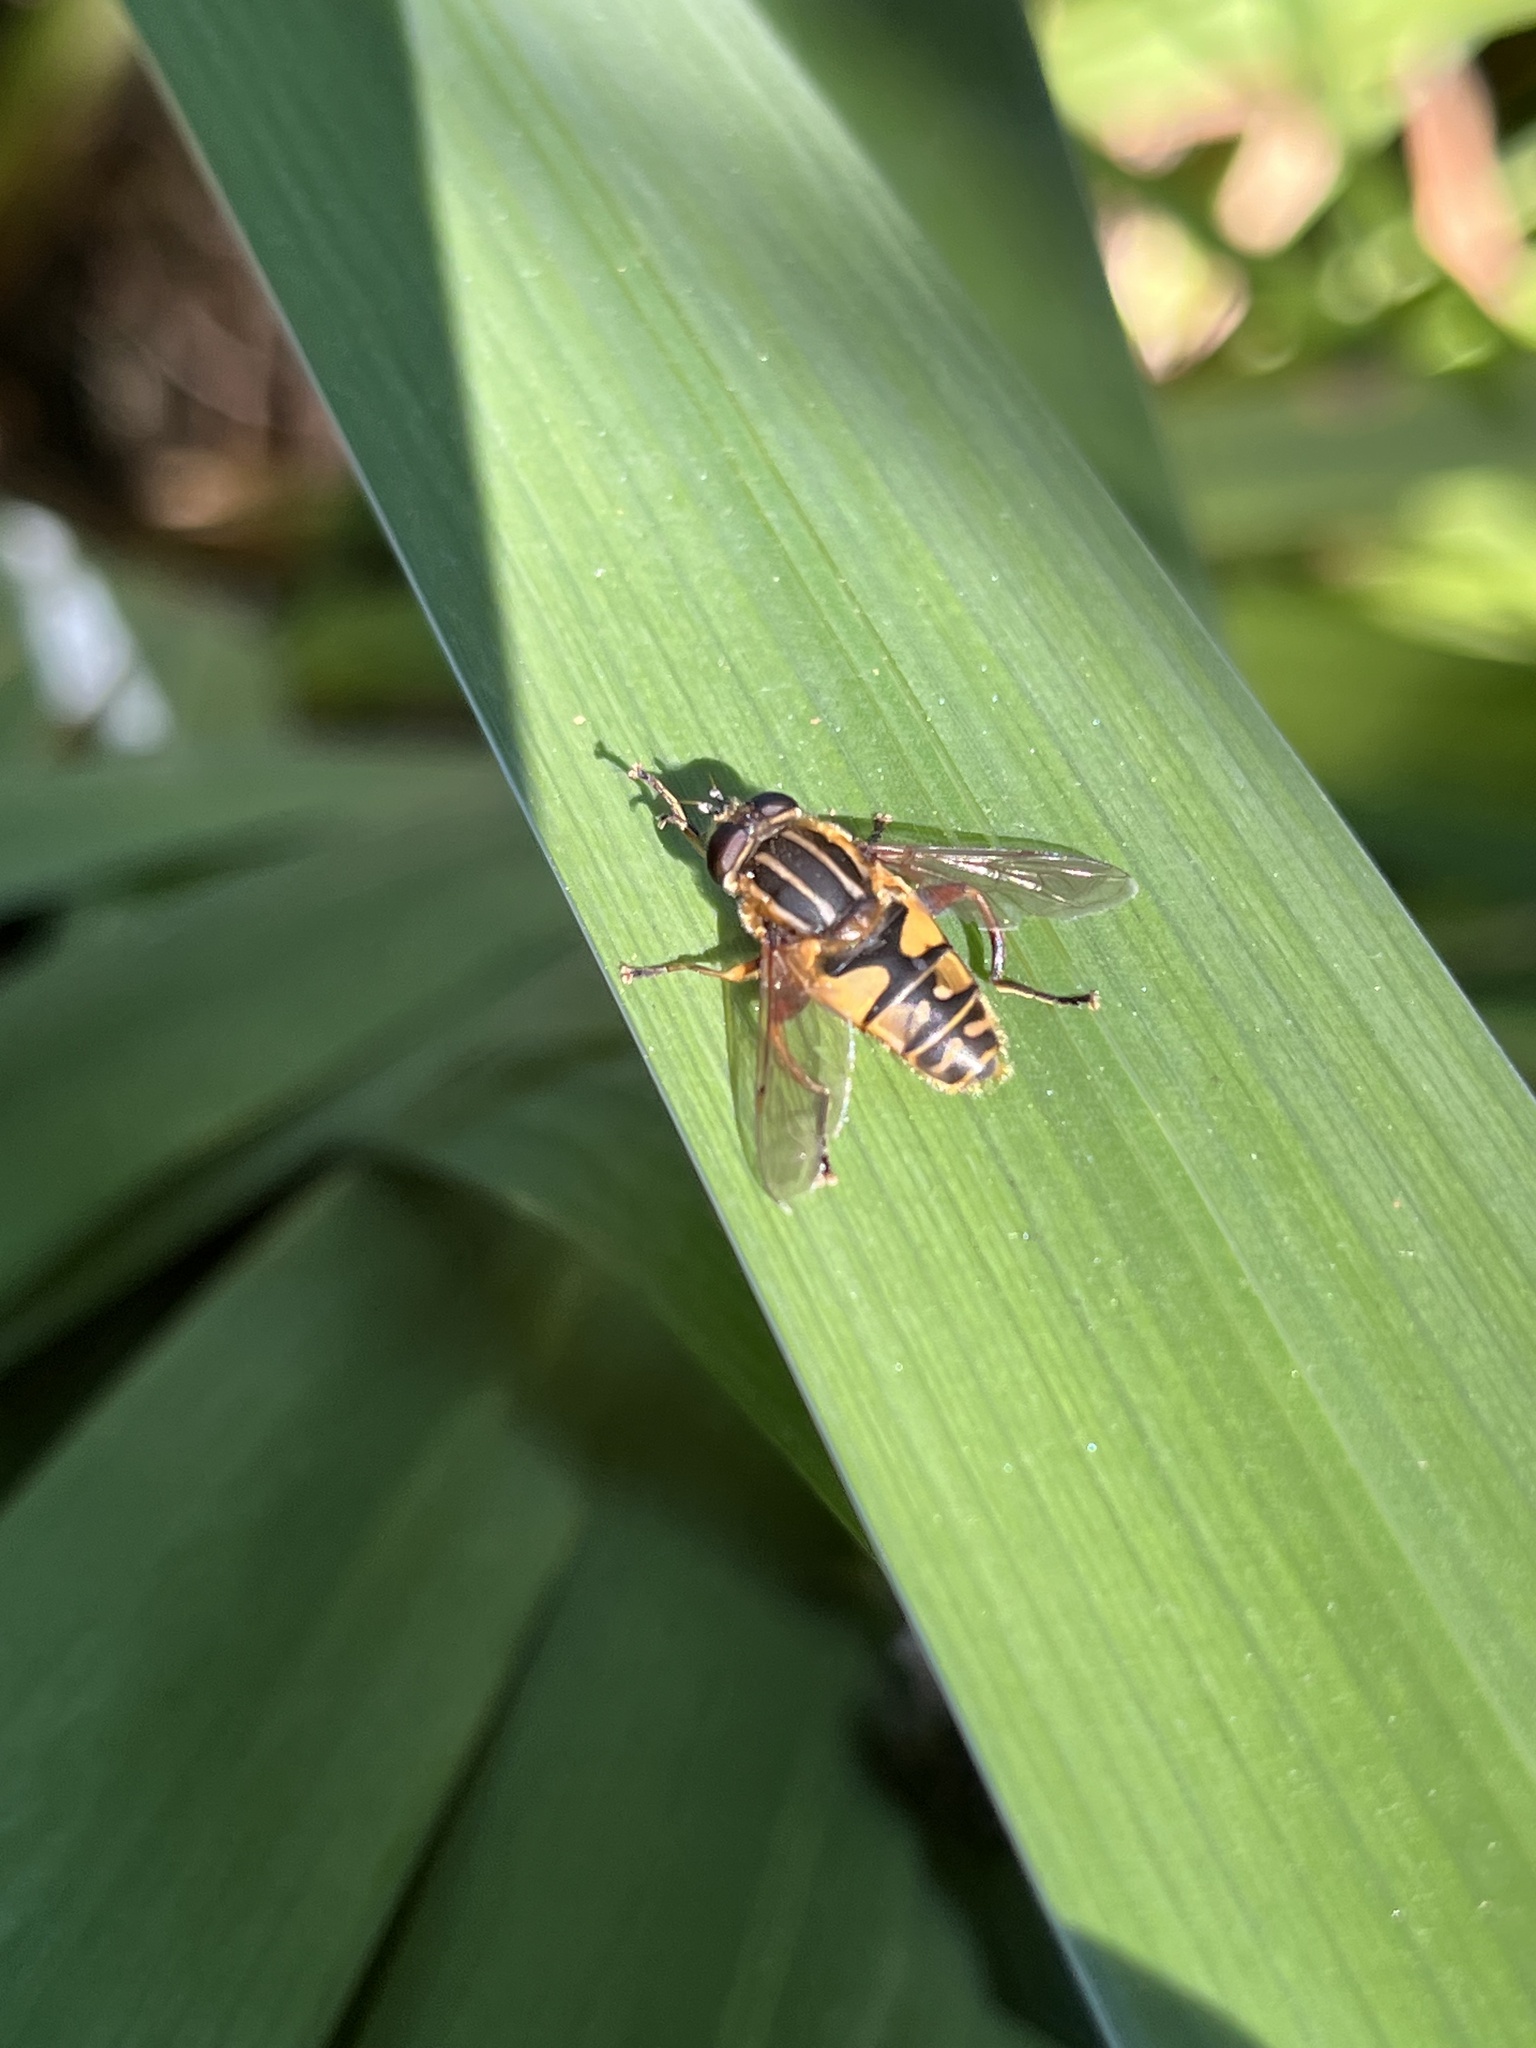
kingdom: Animalia
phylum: Arthropoda
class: Insecta
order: Diptera
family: Syrphidae
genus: Helophilus
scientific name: Helophilus pendulus
